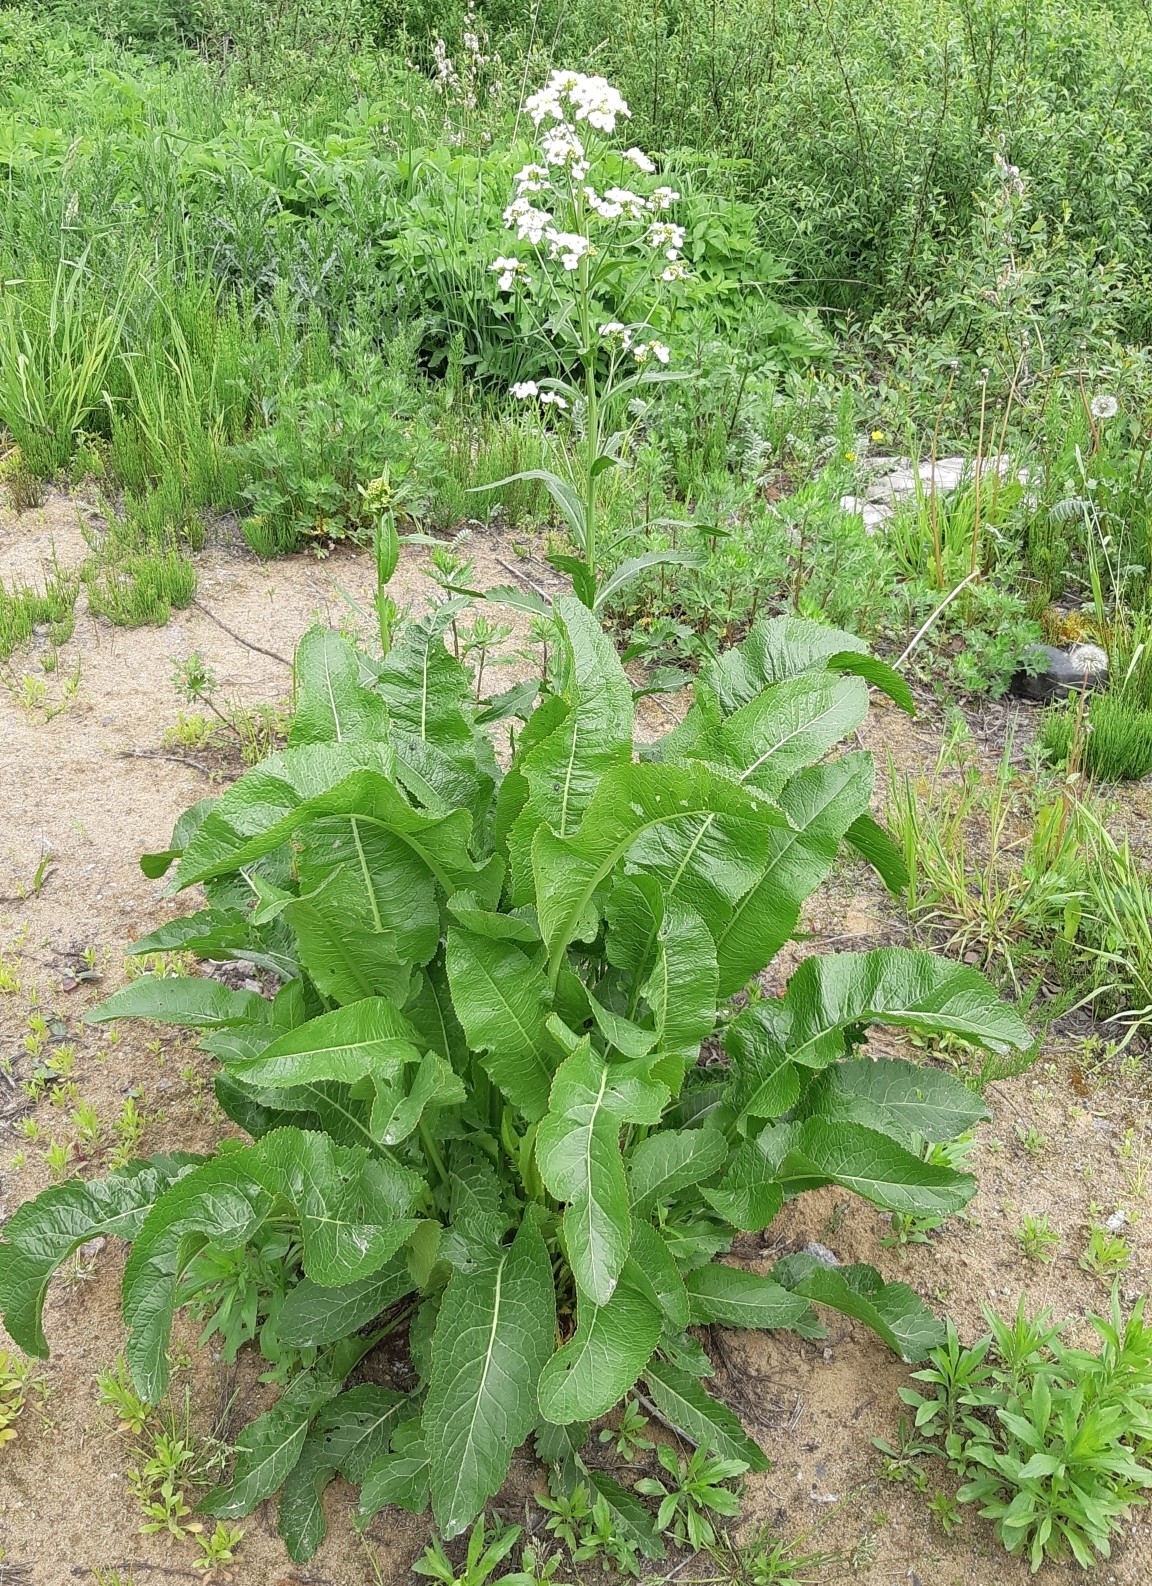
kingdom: Plantae
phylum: Tracheophyta
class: Magnoliopsida
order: Brassicales
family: Brassicaceae
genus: Armoracia
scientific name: Armoracia rusticana
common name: Horseradish
